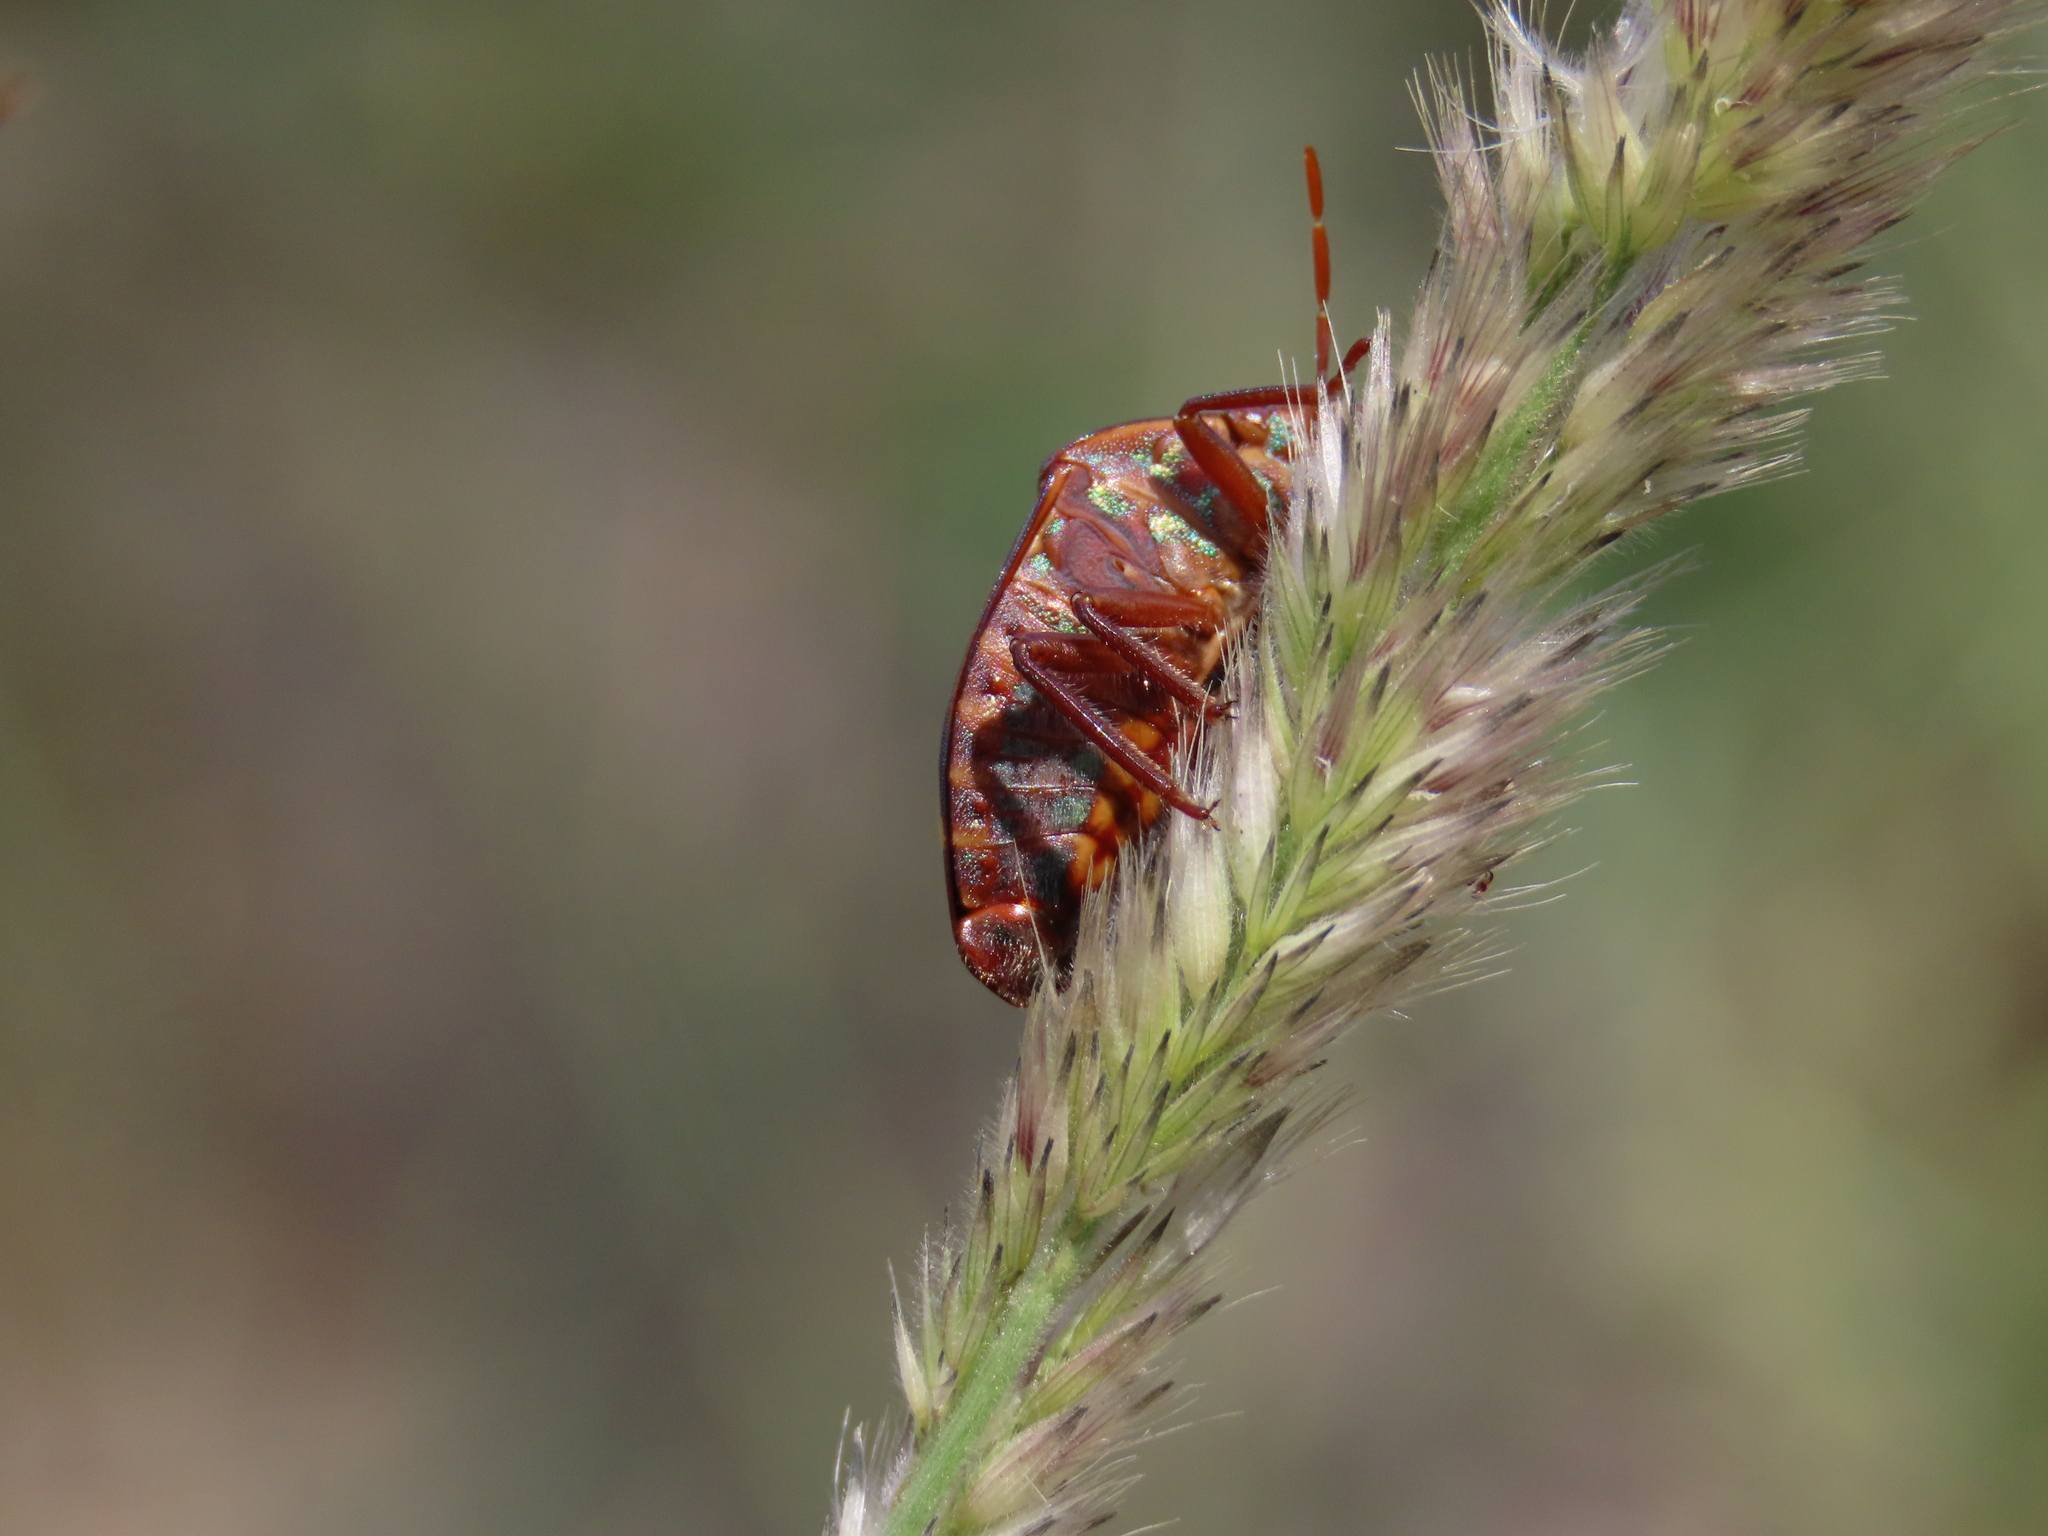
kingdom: Animalia
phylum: Arthropoda
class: Insecta
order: Hemiptera
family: Scutelleridae
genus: Solenosthedium
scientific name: Solenosthedium
